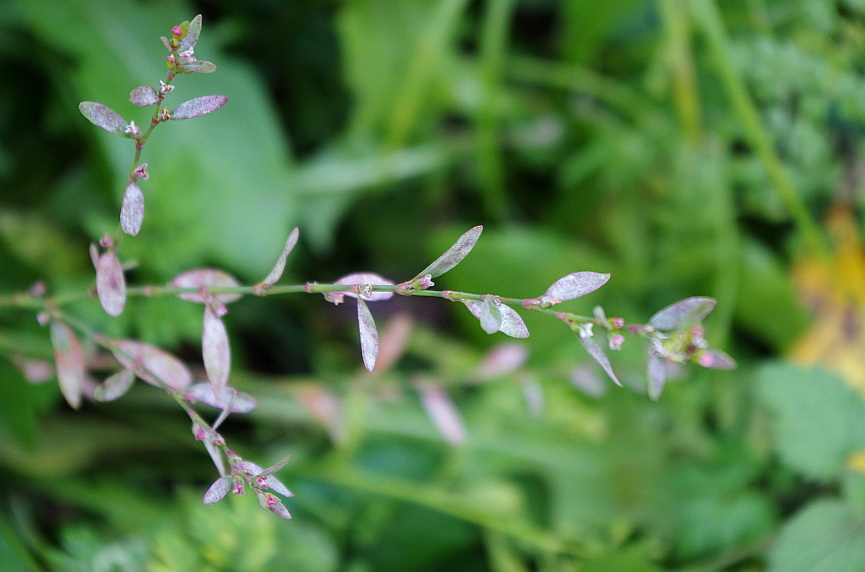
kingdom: Plantae
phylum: Tracheophyta
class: Magnoliopsida
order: Caryophyllales
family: Polygonaceae
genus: Polygonum
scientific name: Polygonum
